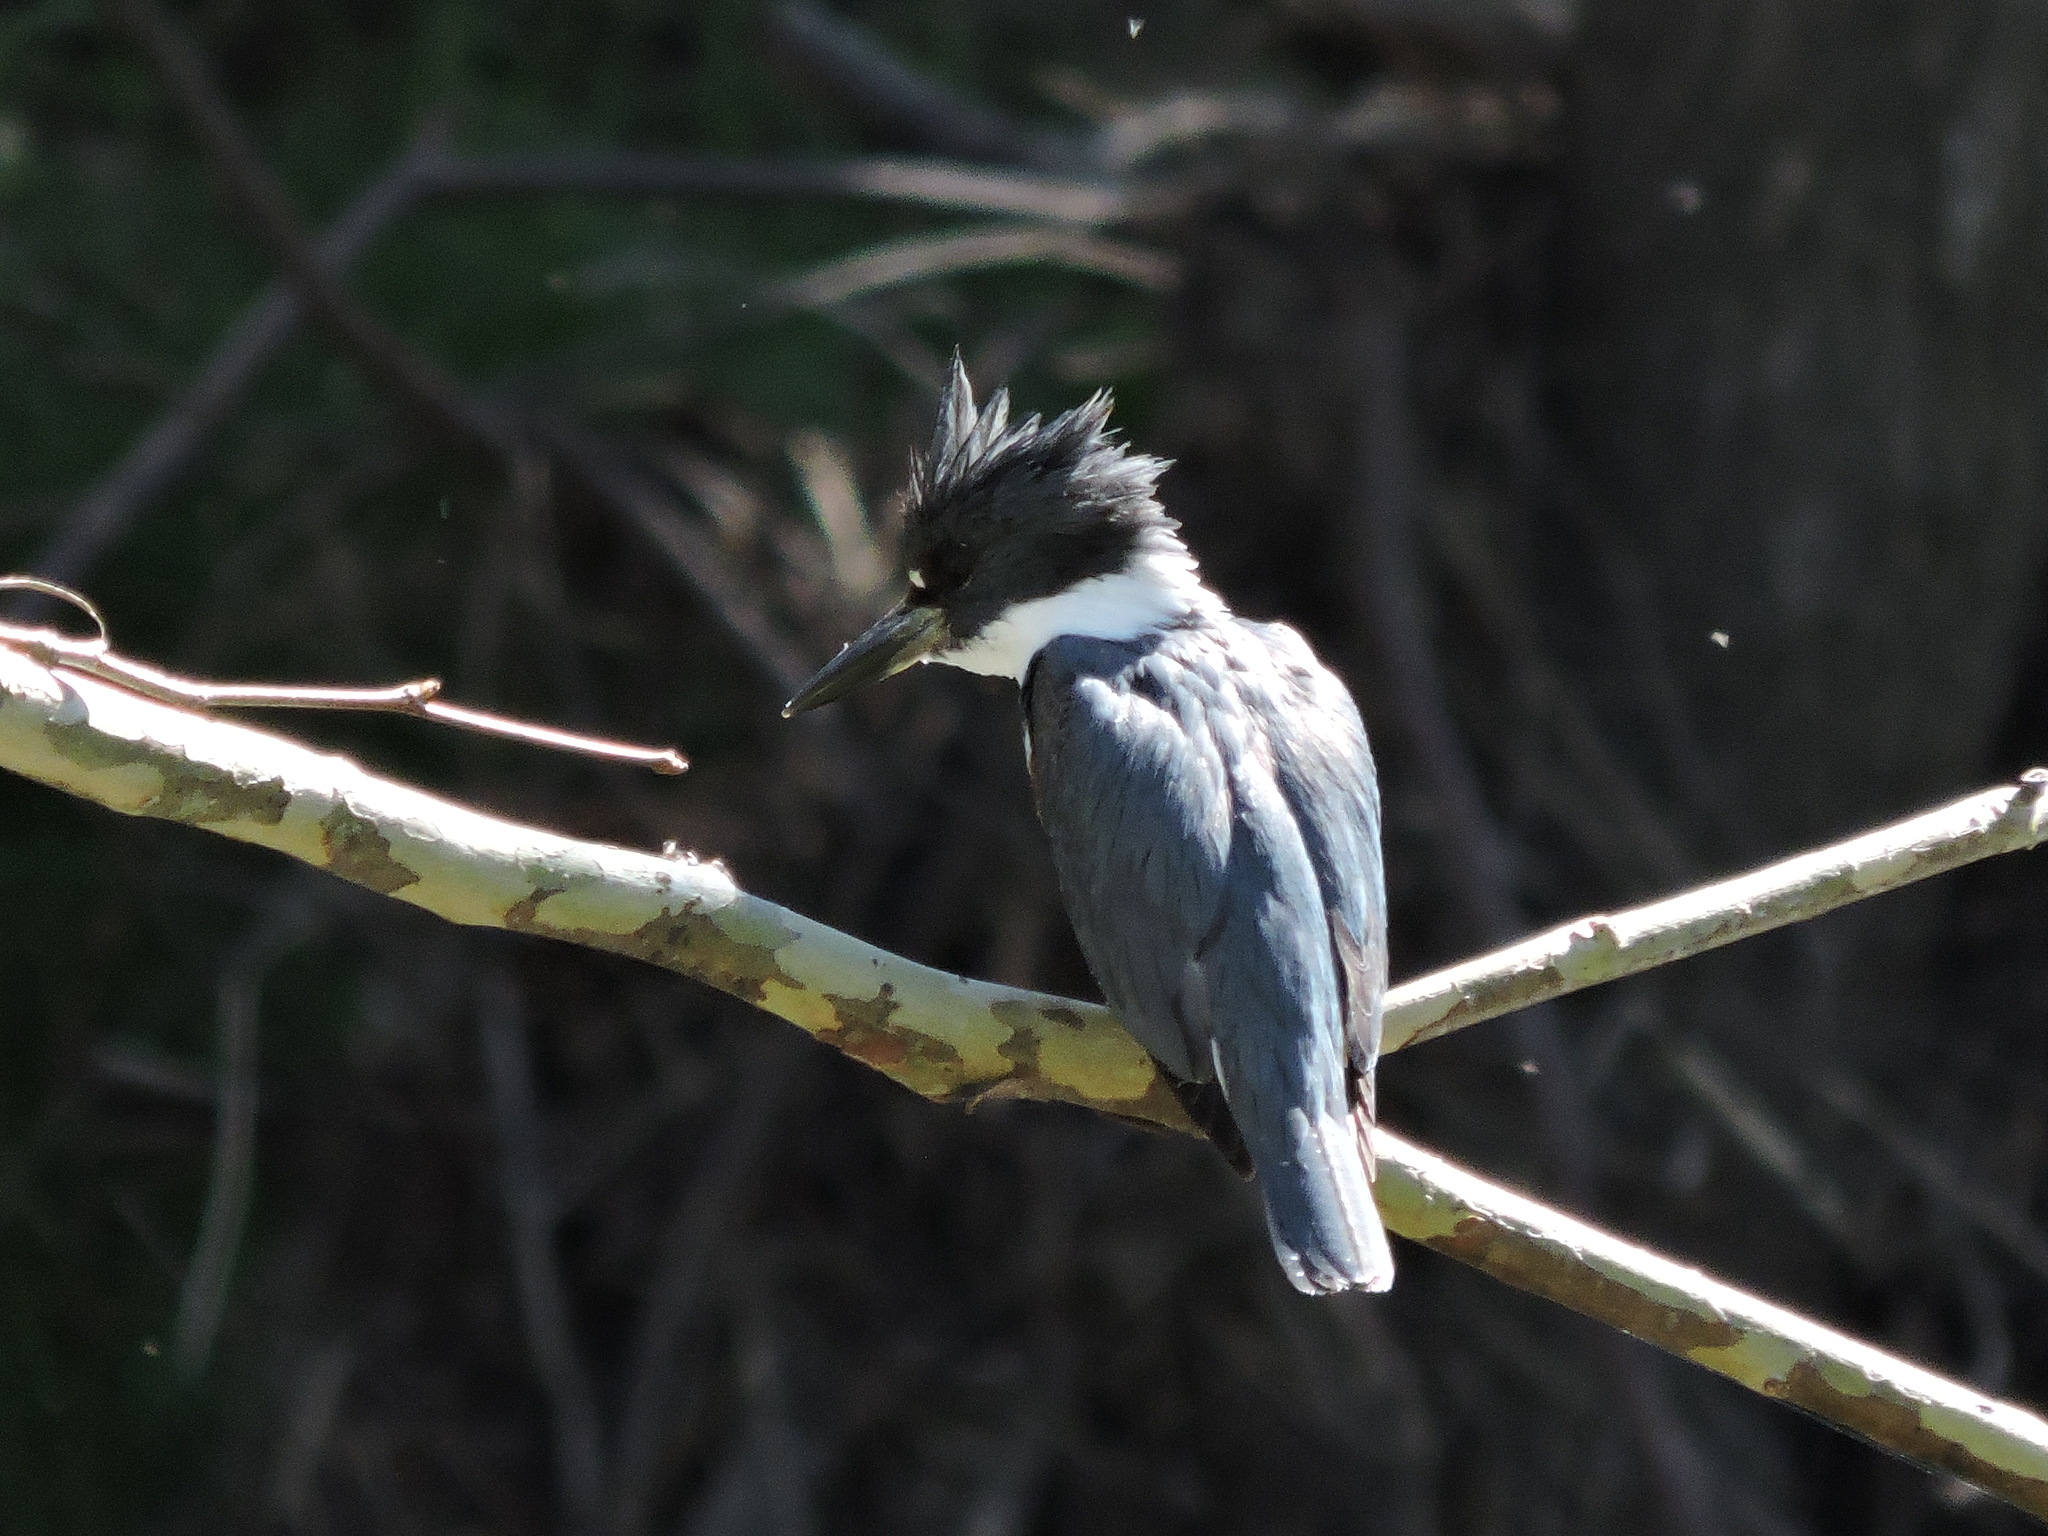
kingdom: Animalia
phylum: Chordata
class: Aves
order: Coraciiformes
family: Alcedinidae
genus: Megaceryle
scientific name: Megaceryle alcyon
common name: Belted kingfisher
